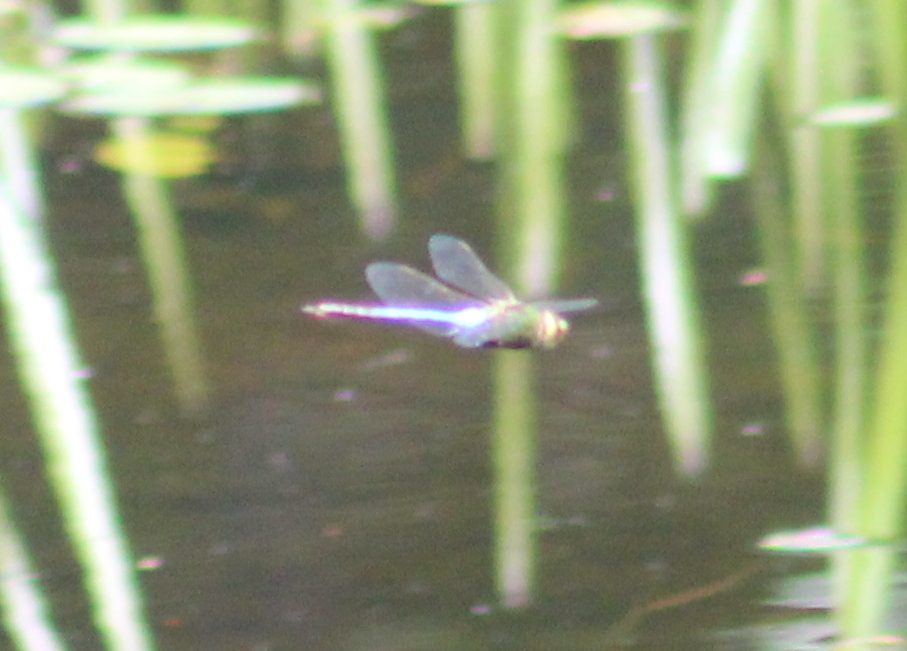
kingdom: Animalia
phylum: Arthropoda
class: Insecta
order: Odonata
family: Aeshnidae
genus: Anax
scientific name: Anax junius
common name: Common green darner
